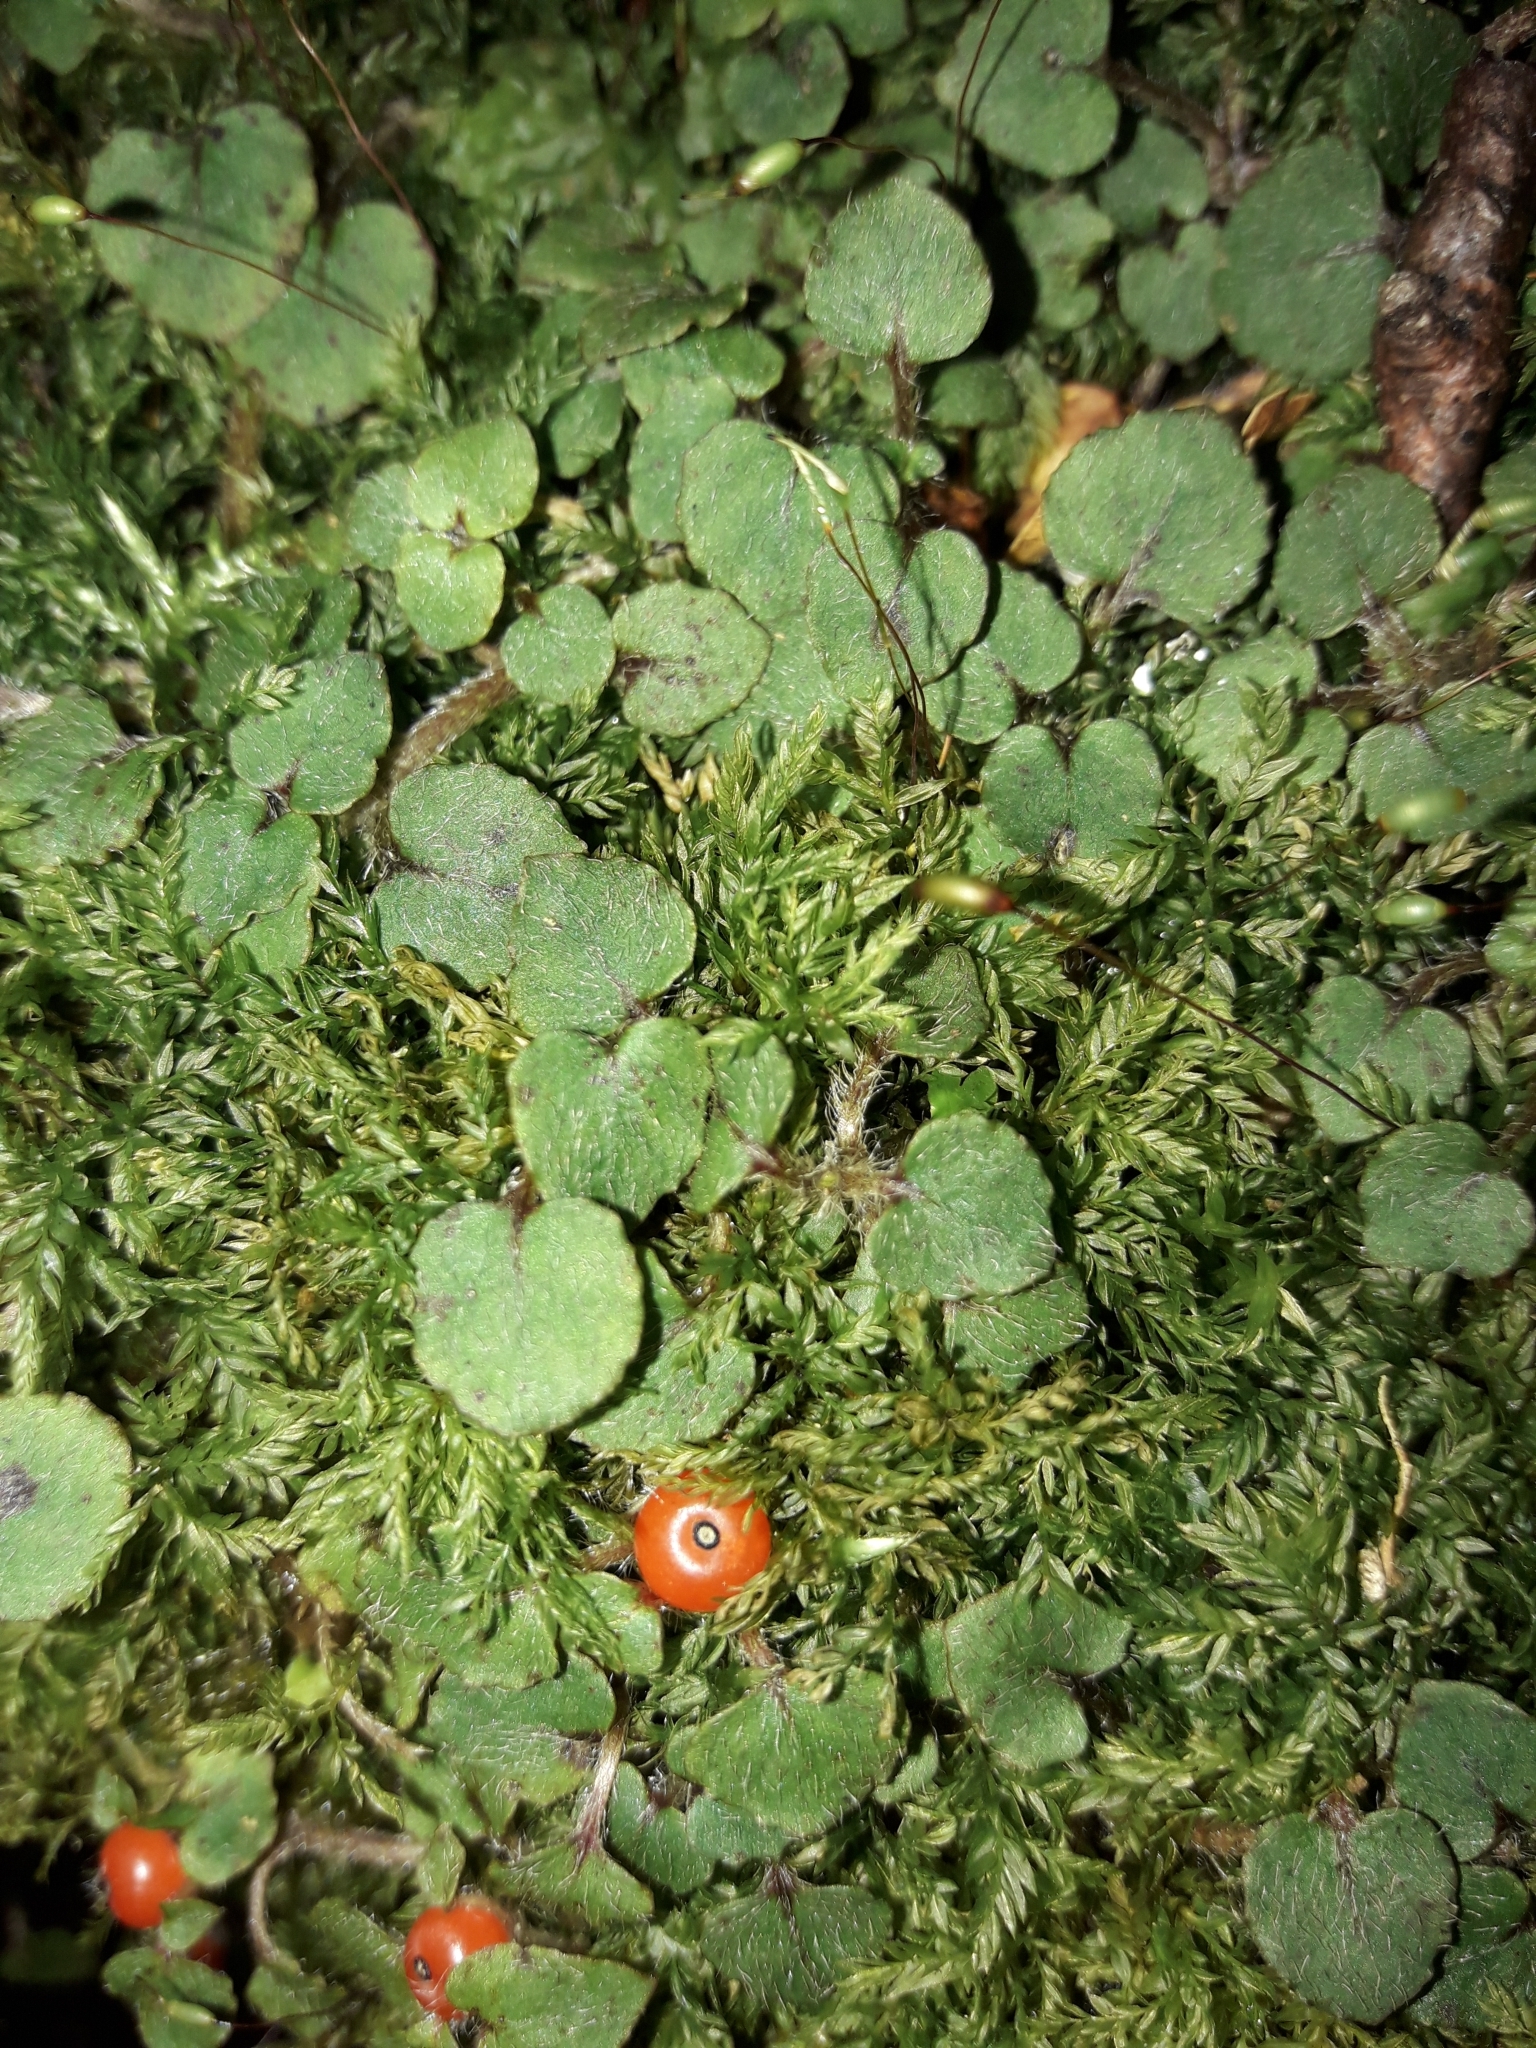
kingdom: Plantae
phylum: Tracheophyta
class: Magnoliopsida
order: Gentianales
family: Rubiaceae
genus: Nertera
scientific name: Nertera villosa
